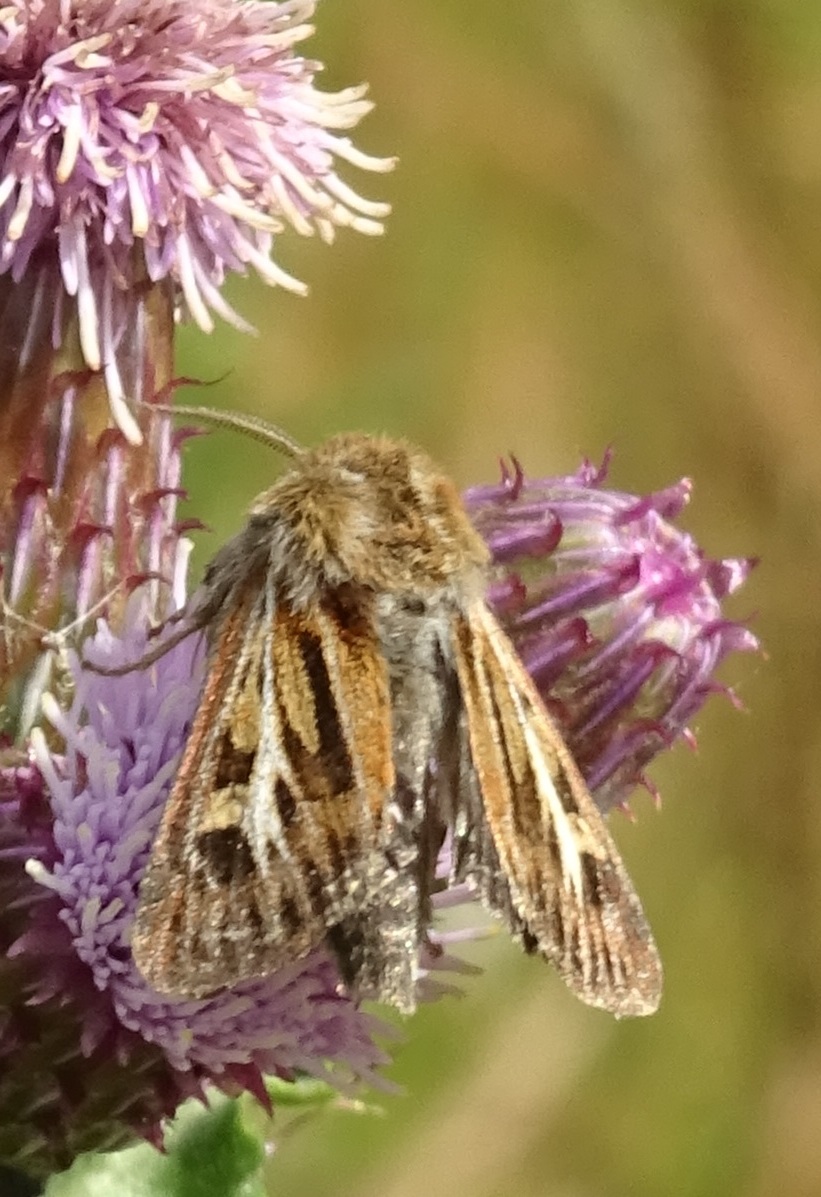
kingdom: Animalia
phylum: Arthropoda
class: Insecta
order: Lepidoptera
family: Noctuidae
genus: Cerapteryx
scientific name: Cerapteryx graminis
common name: Antler moth
